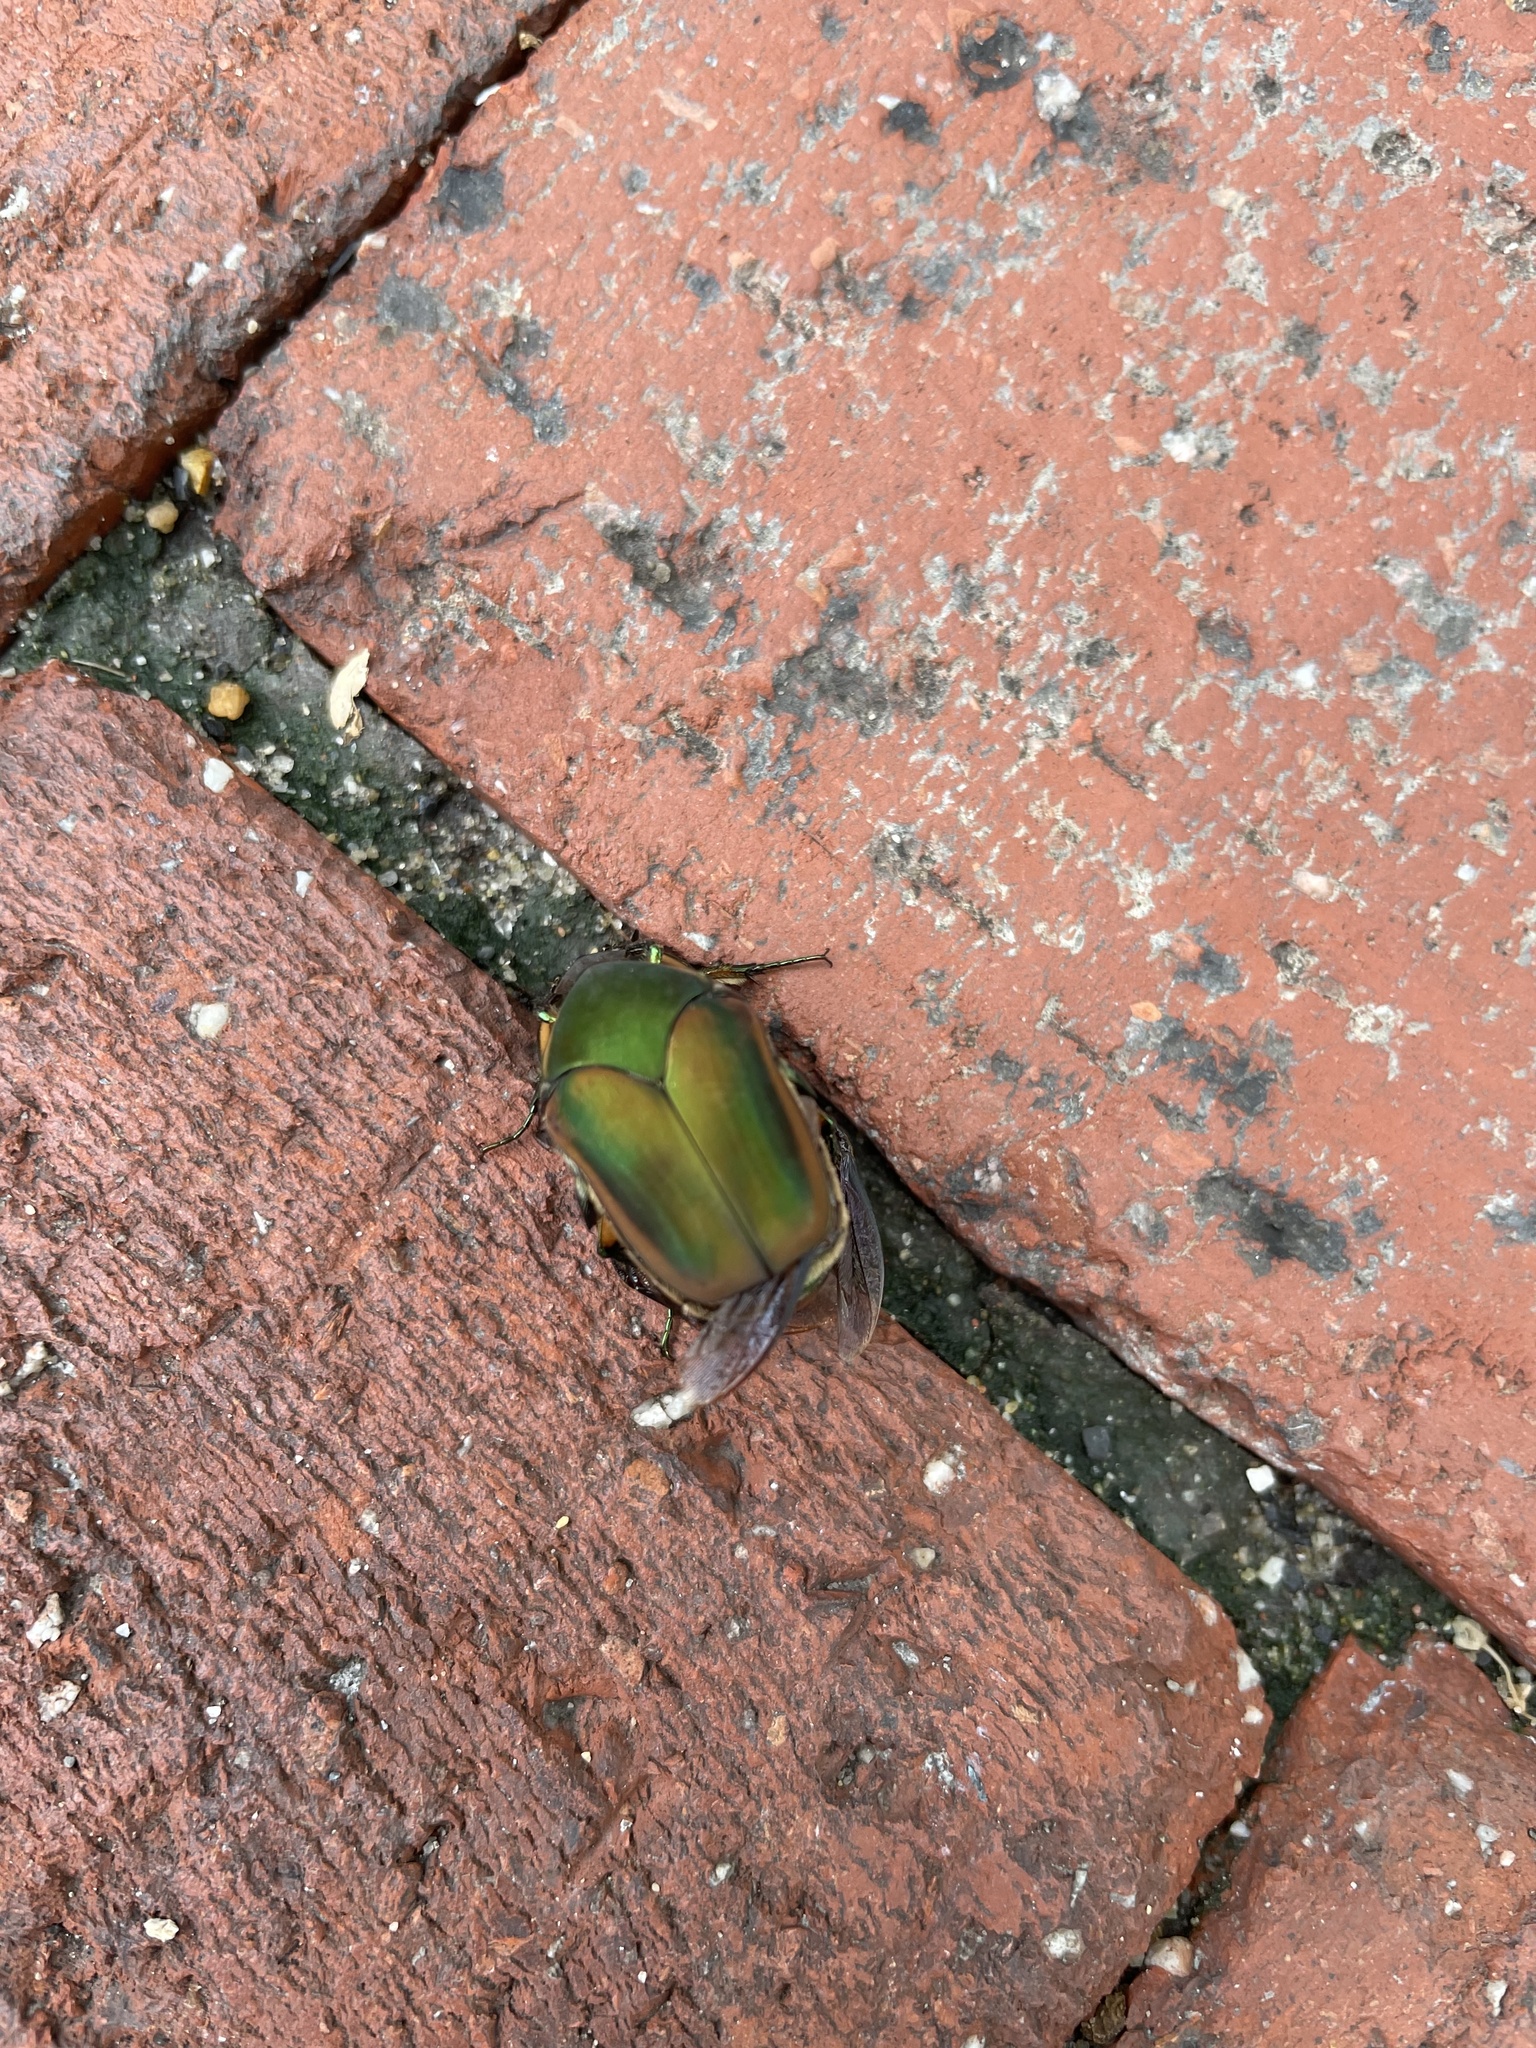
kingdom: Animalia
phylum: Arthropoda
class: Insecta
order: Coleoptera
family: Scarabaeidae
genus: Cotinis
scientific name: Cotinis nitida
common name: Common green june beetle
